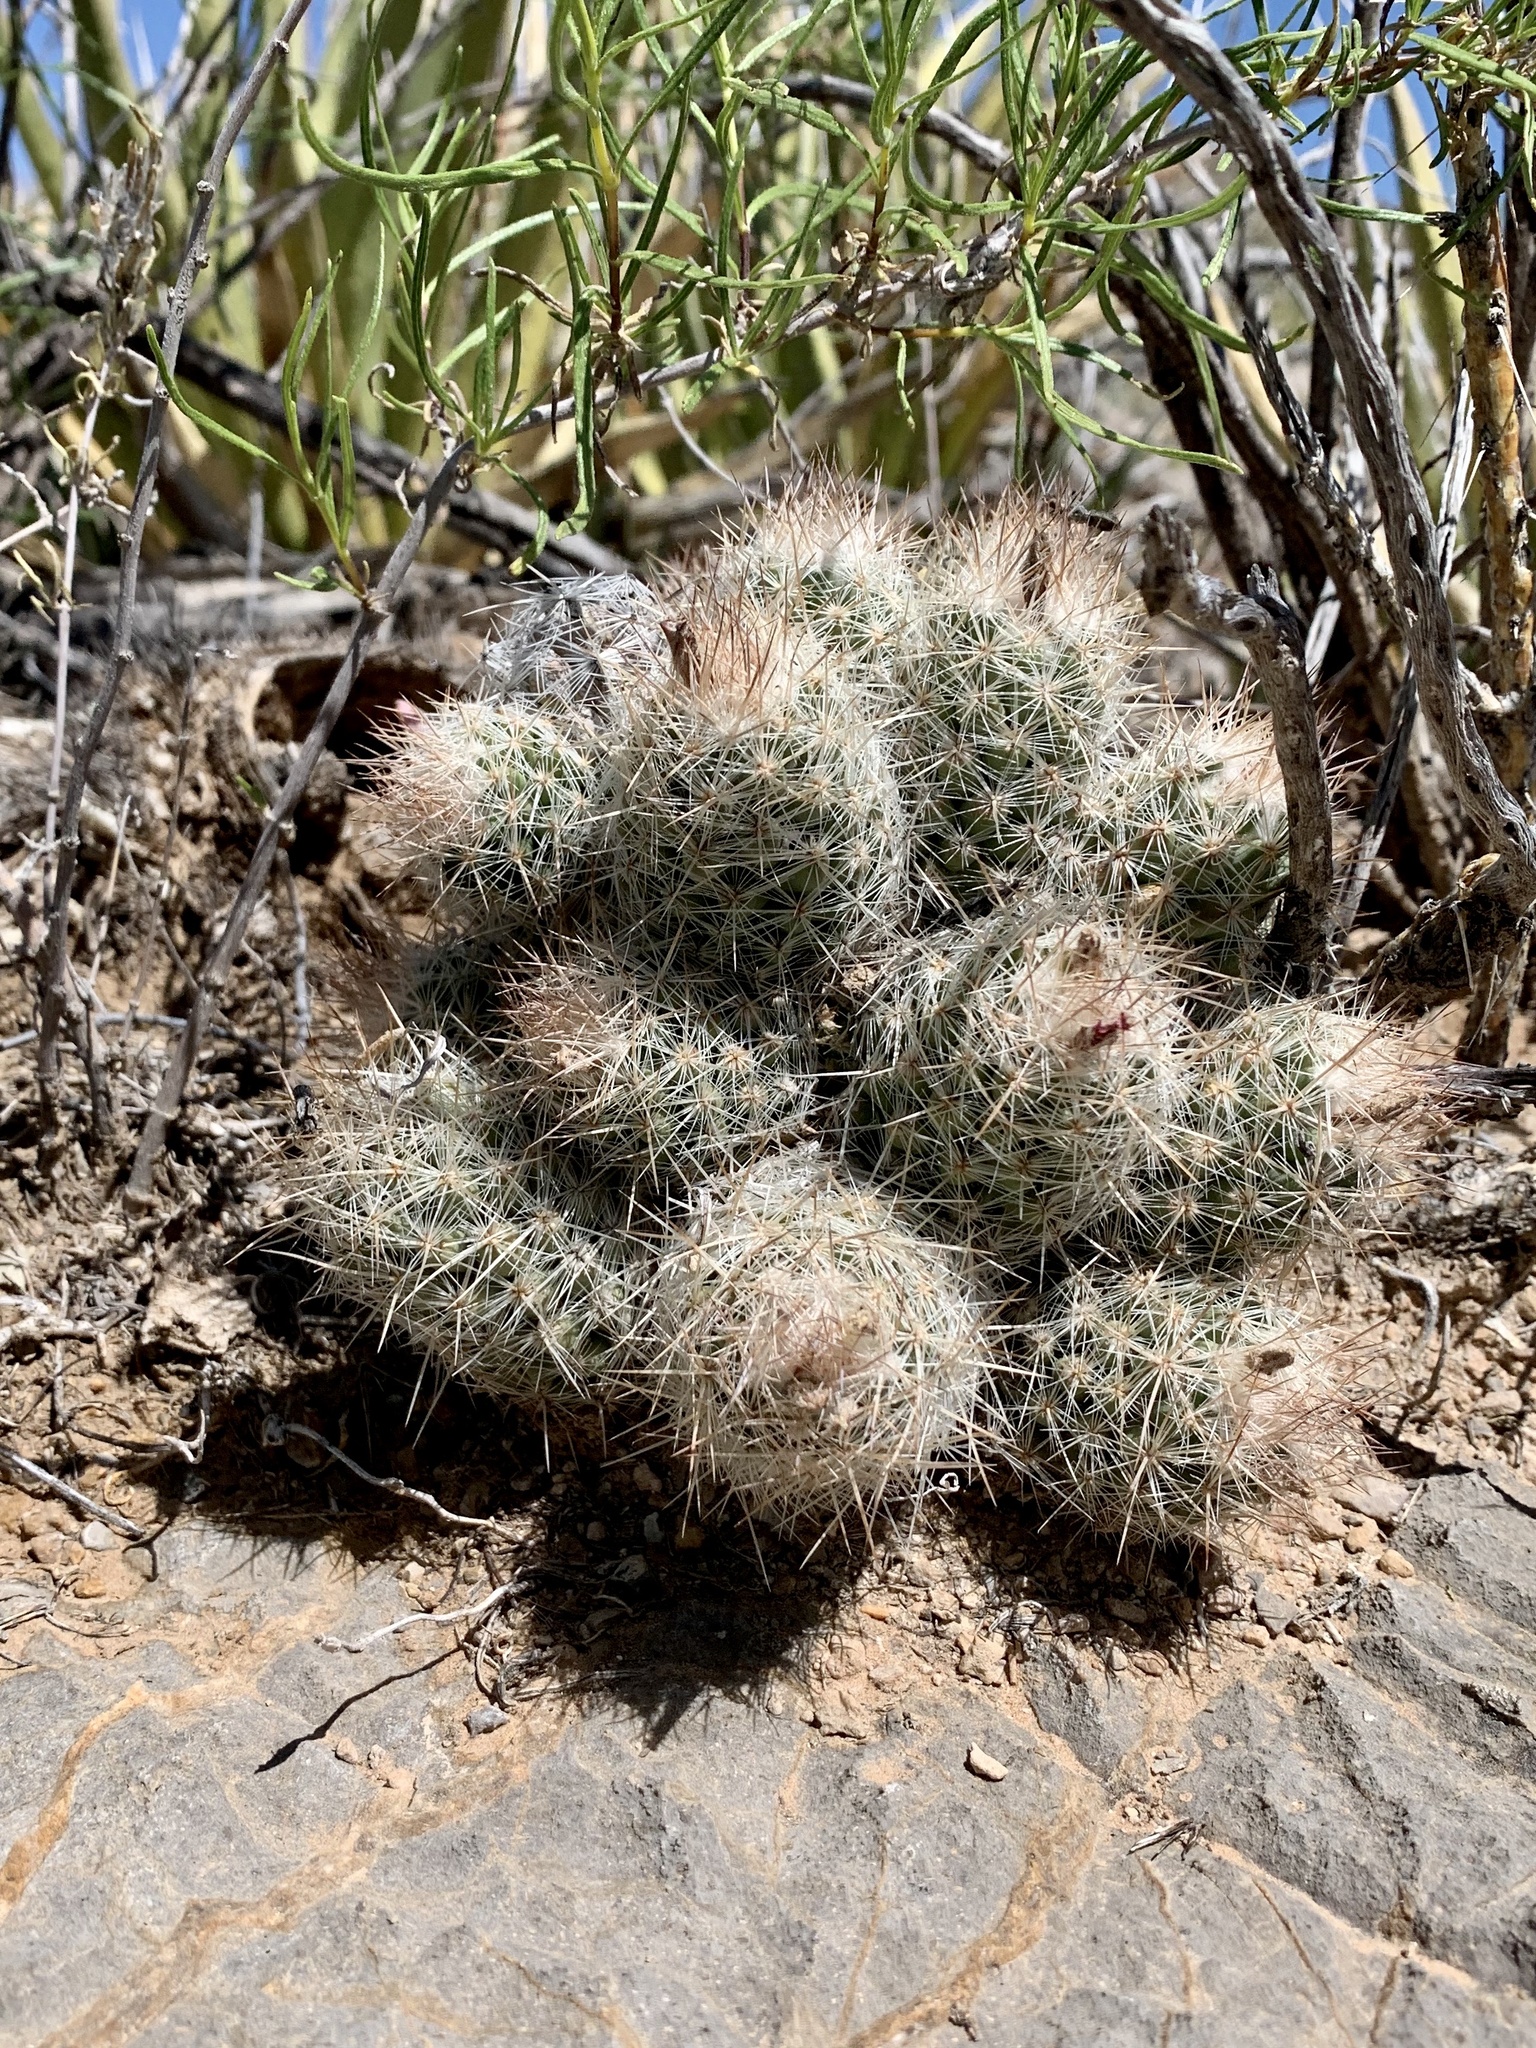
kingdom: Plantae
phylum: Tracheophyta
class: Magnoliopsida
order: Caryophyllales
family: Cactaceae
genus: Pelecyphora
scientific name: Pelecyphora tuberculosa
